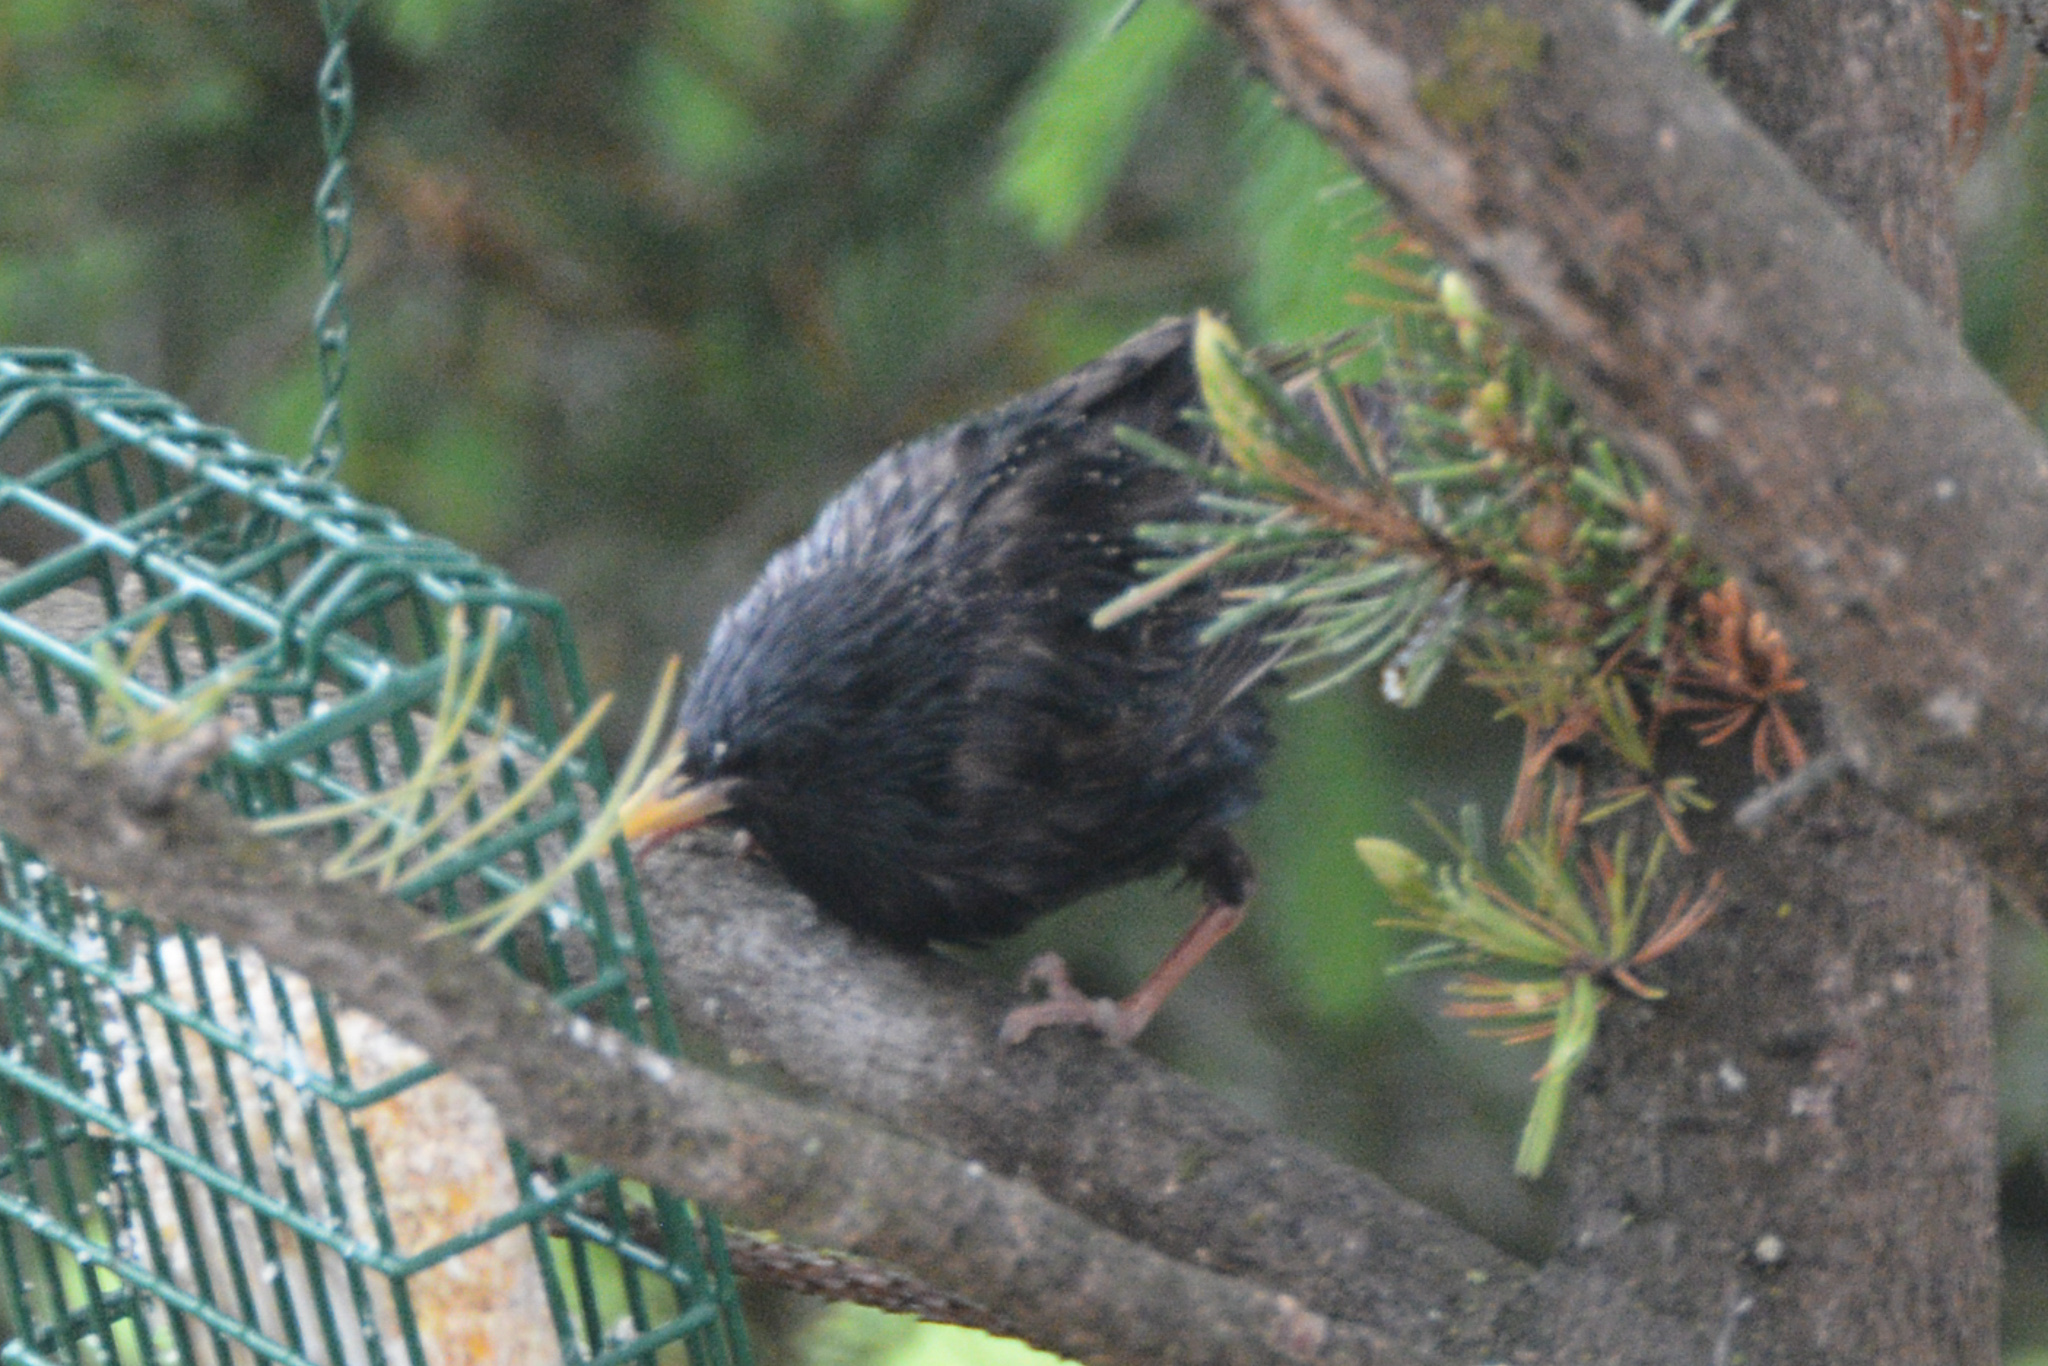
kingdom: Animalia
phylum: Chordata
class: Aves
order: Passeriformes
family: Sturnidae
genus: Sturnus
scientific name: Sturnus vulgaris
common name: Common starling
